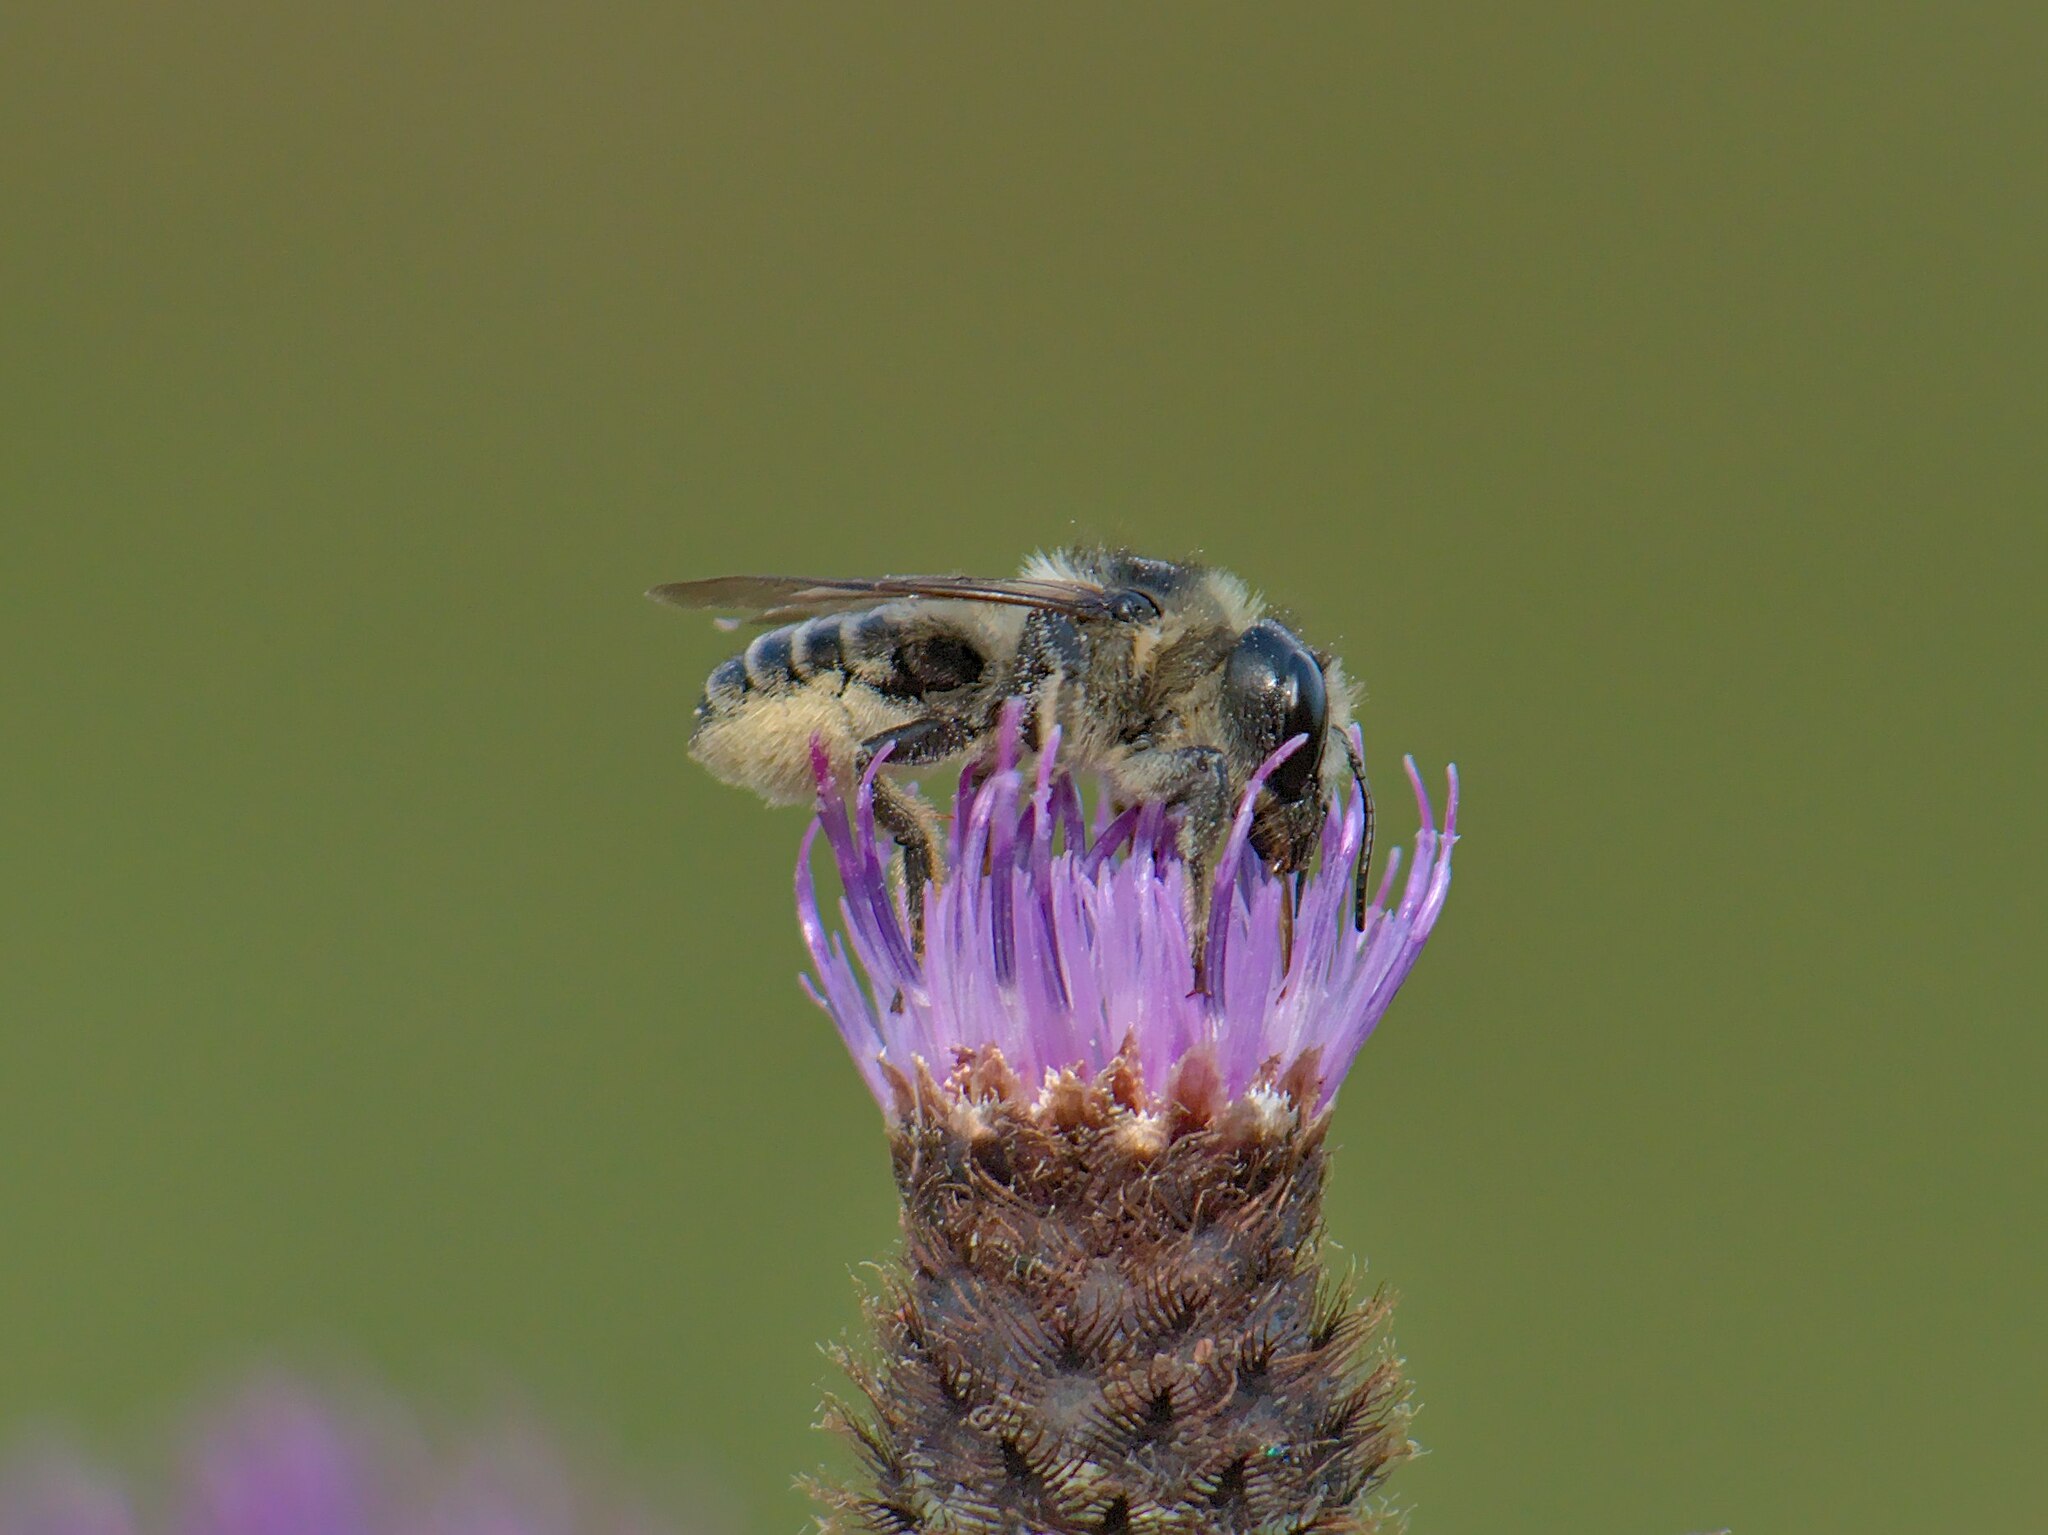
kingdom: Animalia
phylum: Arthropoda
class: Insecta
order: Hymenoptera
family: Megachilidae
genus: Megachile
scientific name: Megachile inermis
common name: Unarmed leafcutter bee
